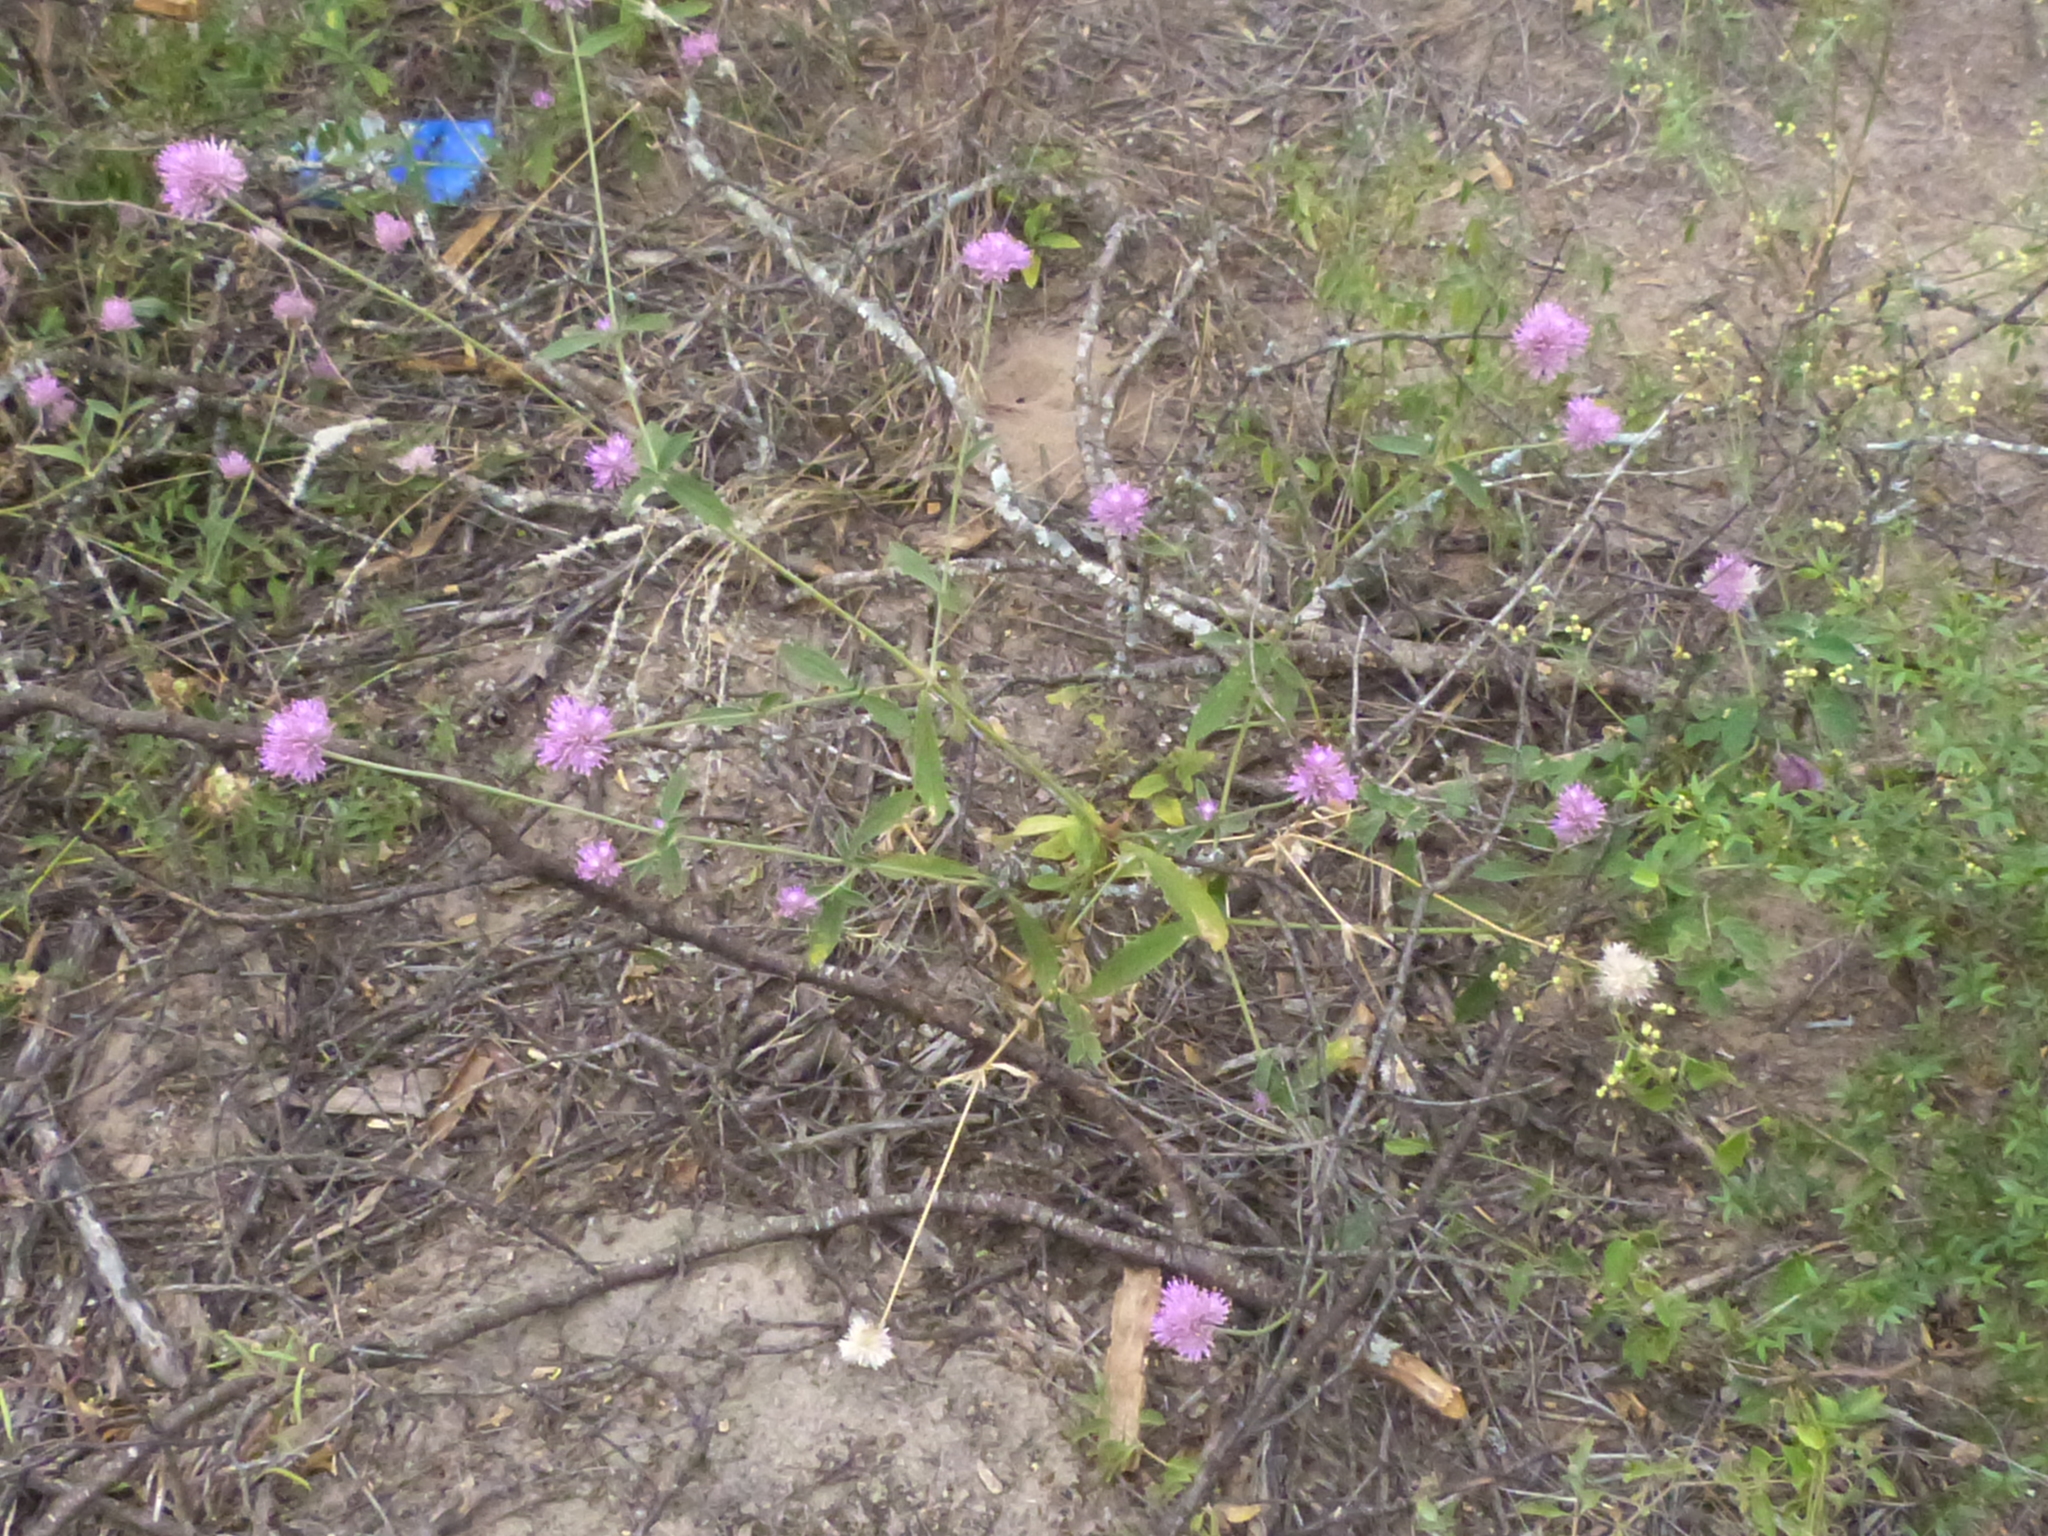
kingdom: Plantae
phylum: Tracheophyta
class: Magnoliopsida
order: Caryophyllales
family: Amaranthaceae
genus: Gomphrena
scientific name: Gomphrena pulchella
